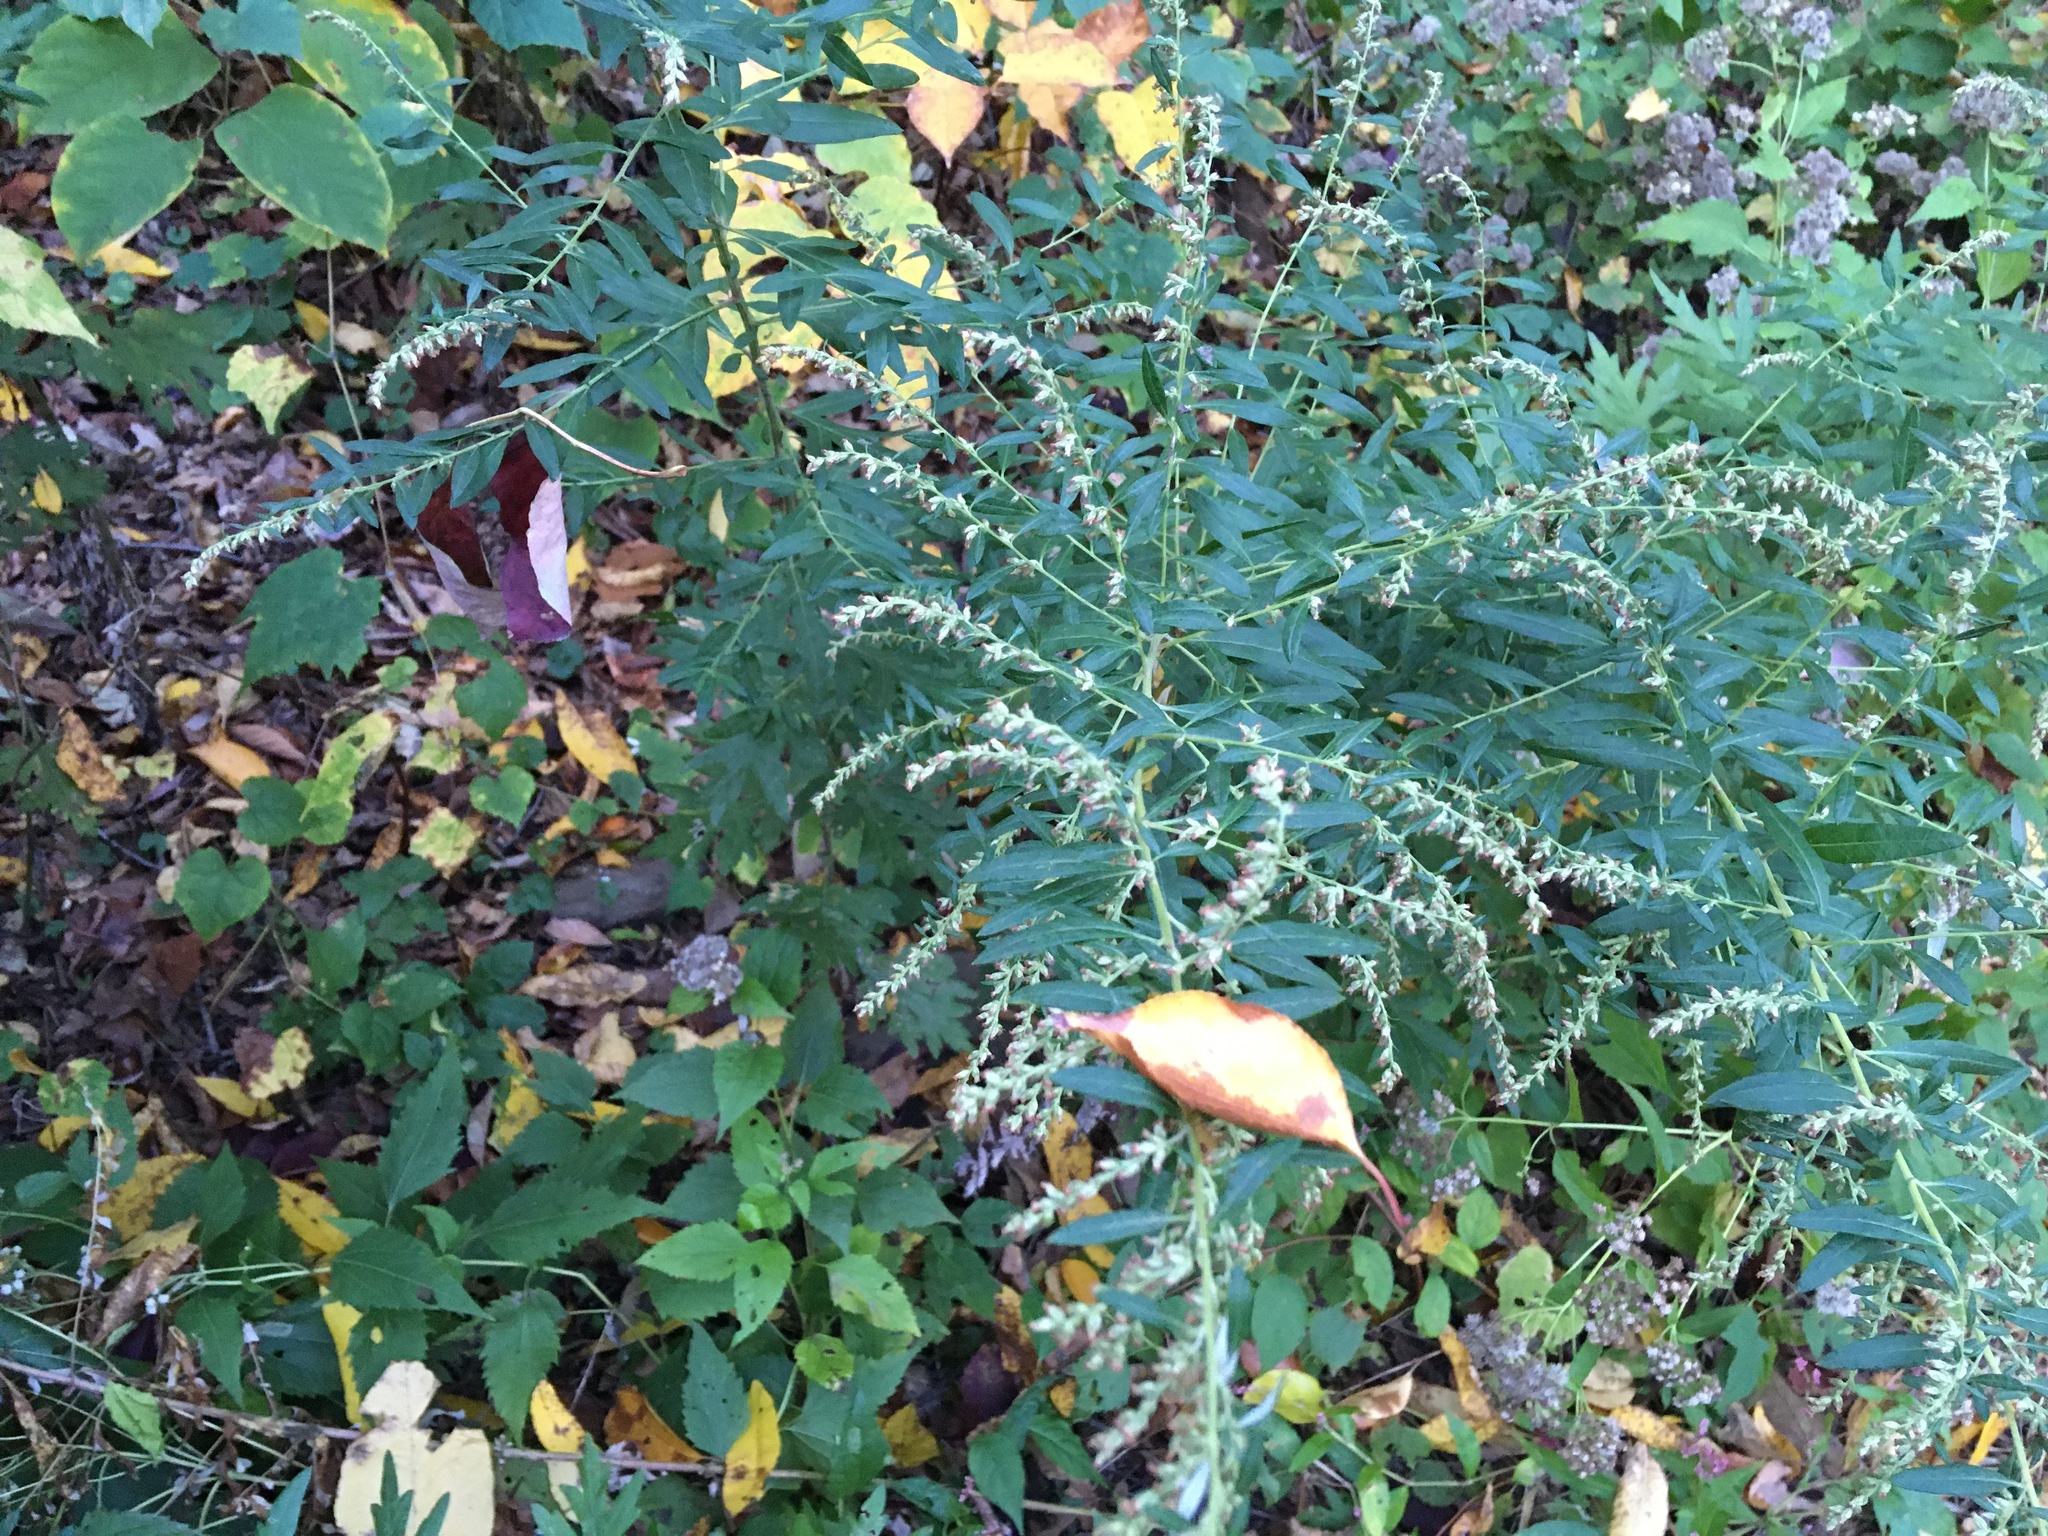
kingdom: Plantae
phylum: Tracheophyta
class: Magnoliopsida
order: Asterales
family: Asteraceae
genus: Artemisia
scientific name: Artemisia vulgaris
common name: Mugwort
